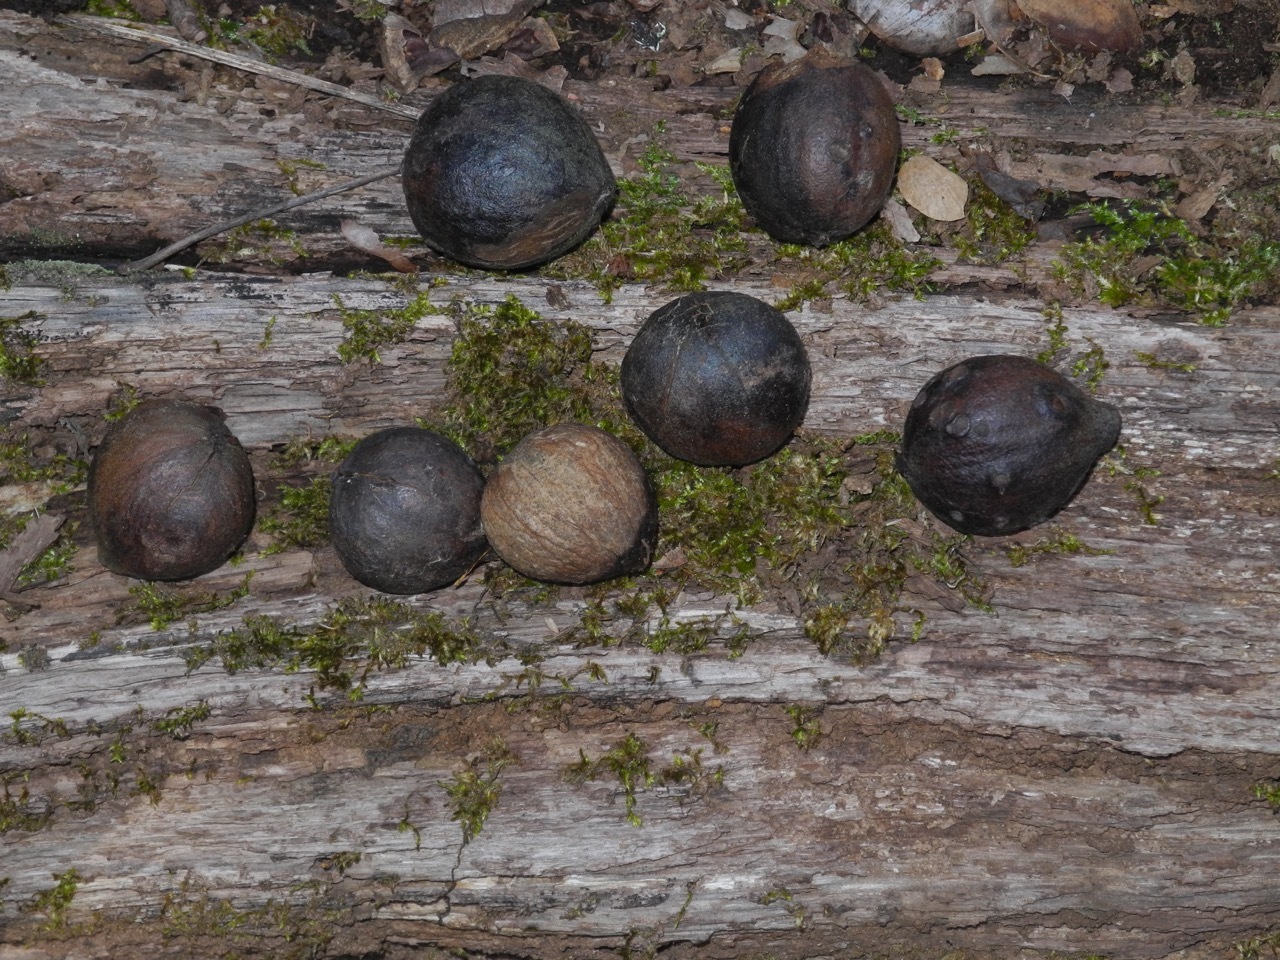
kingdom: Plantae
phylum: Tracheophyta
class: Magnoliopsida
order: Fagales
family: Juglandaceae
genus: Carya
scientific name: Carya cordiformis
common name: Bitternut hickory
